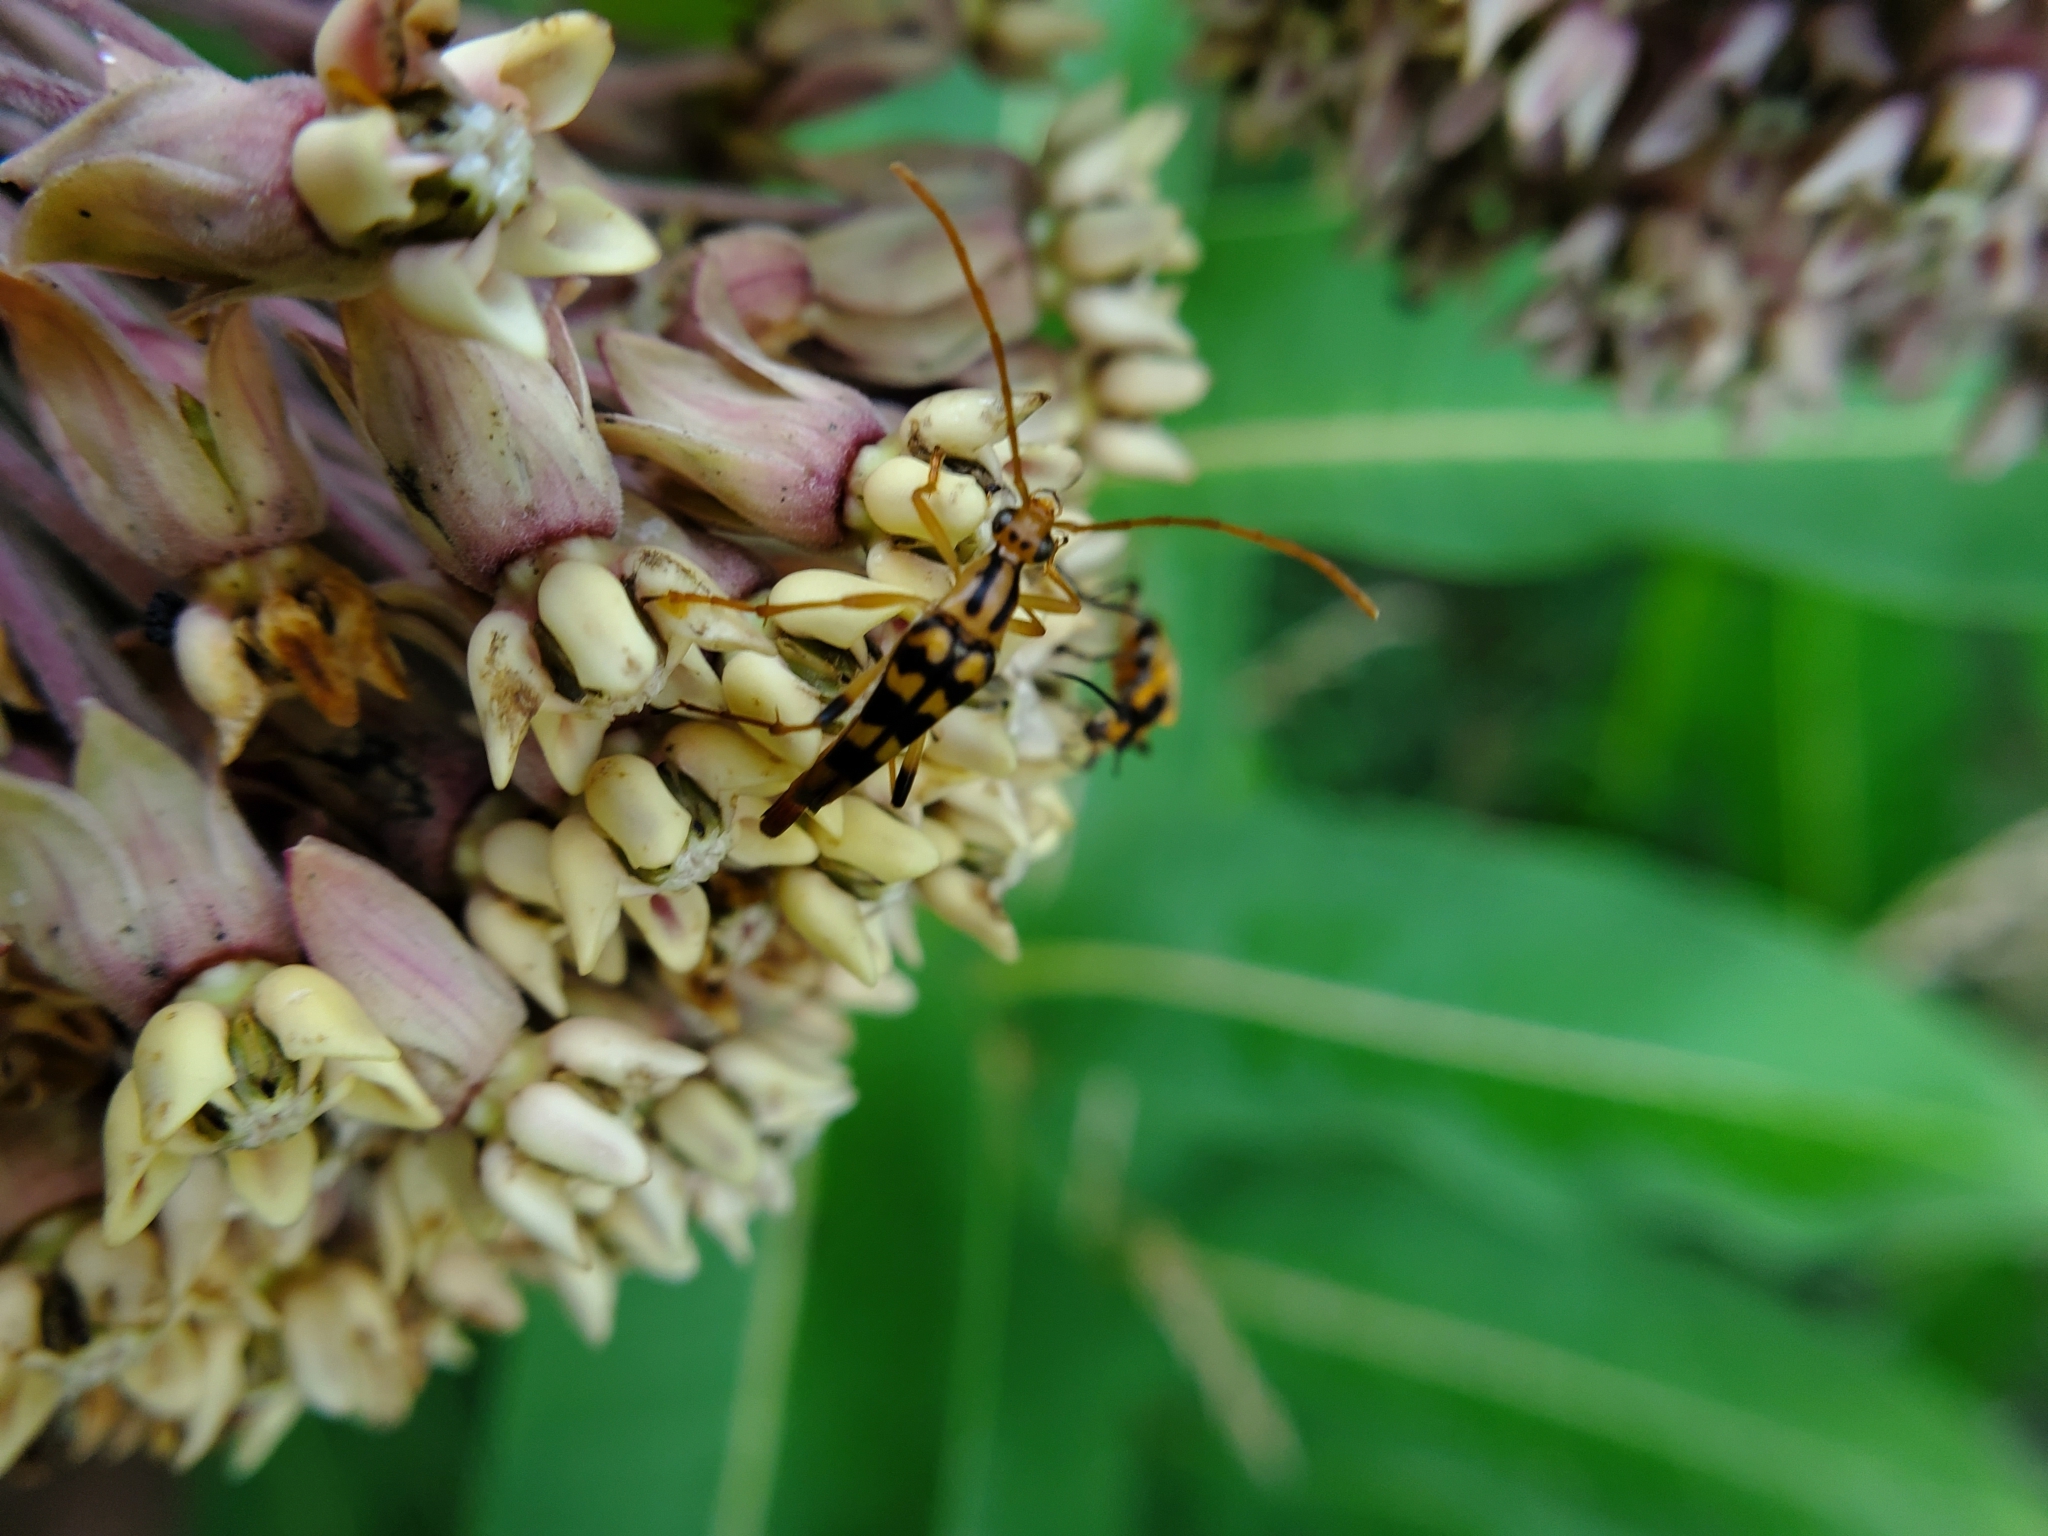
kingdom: Animalia
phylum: Arthropoda
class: Insecta
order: Coleoptera
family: Cerambycidae
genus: Strangalia
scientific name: Strangalia luteicornis
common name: Yellow-horned flower longhorn beetle
